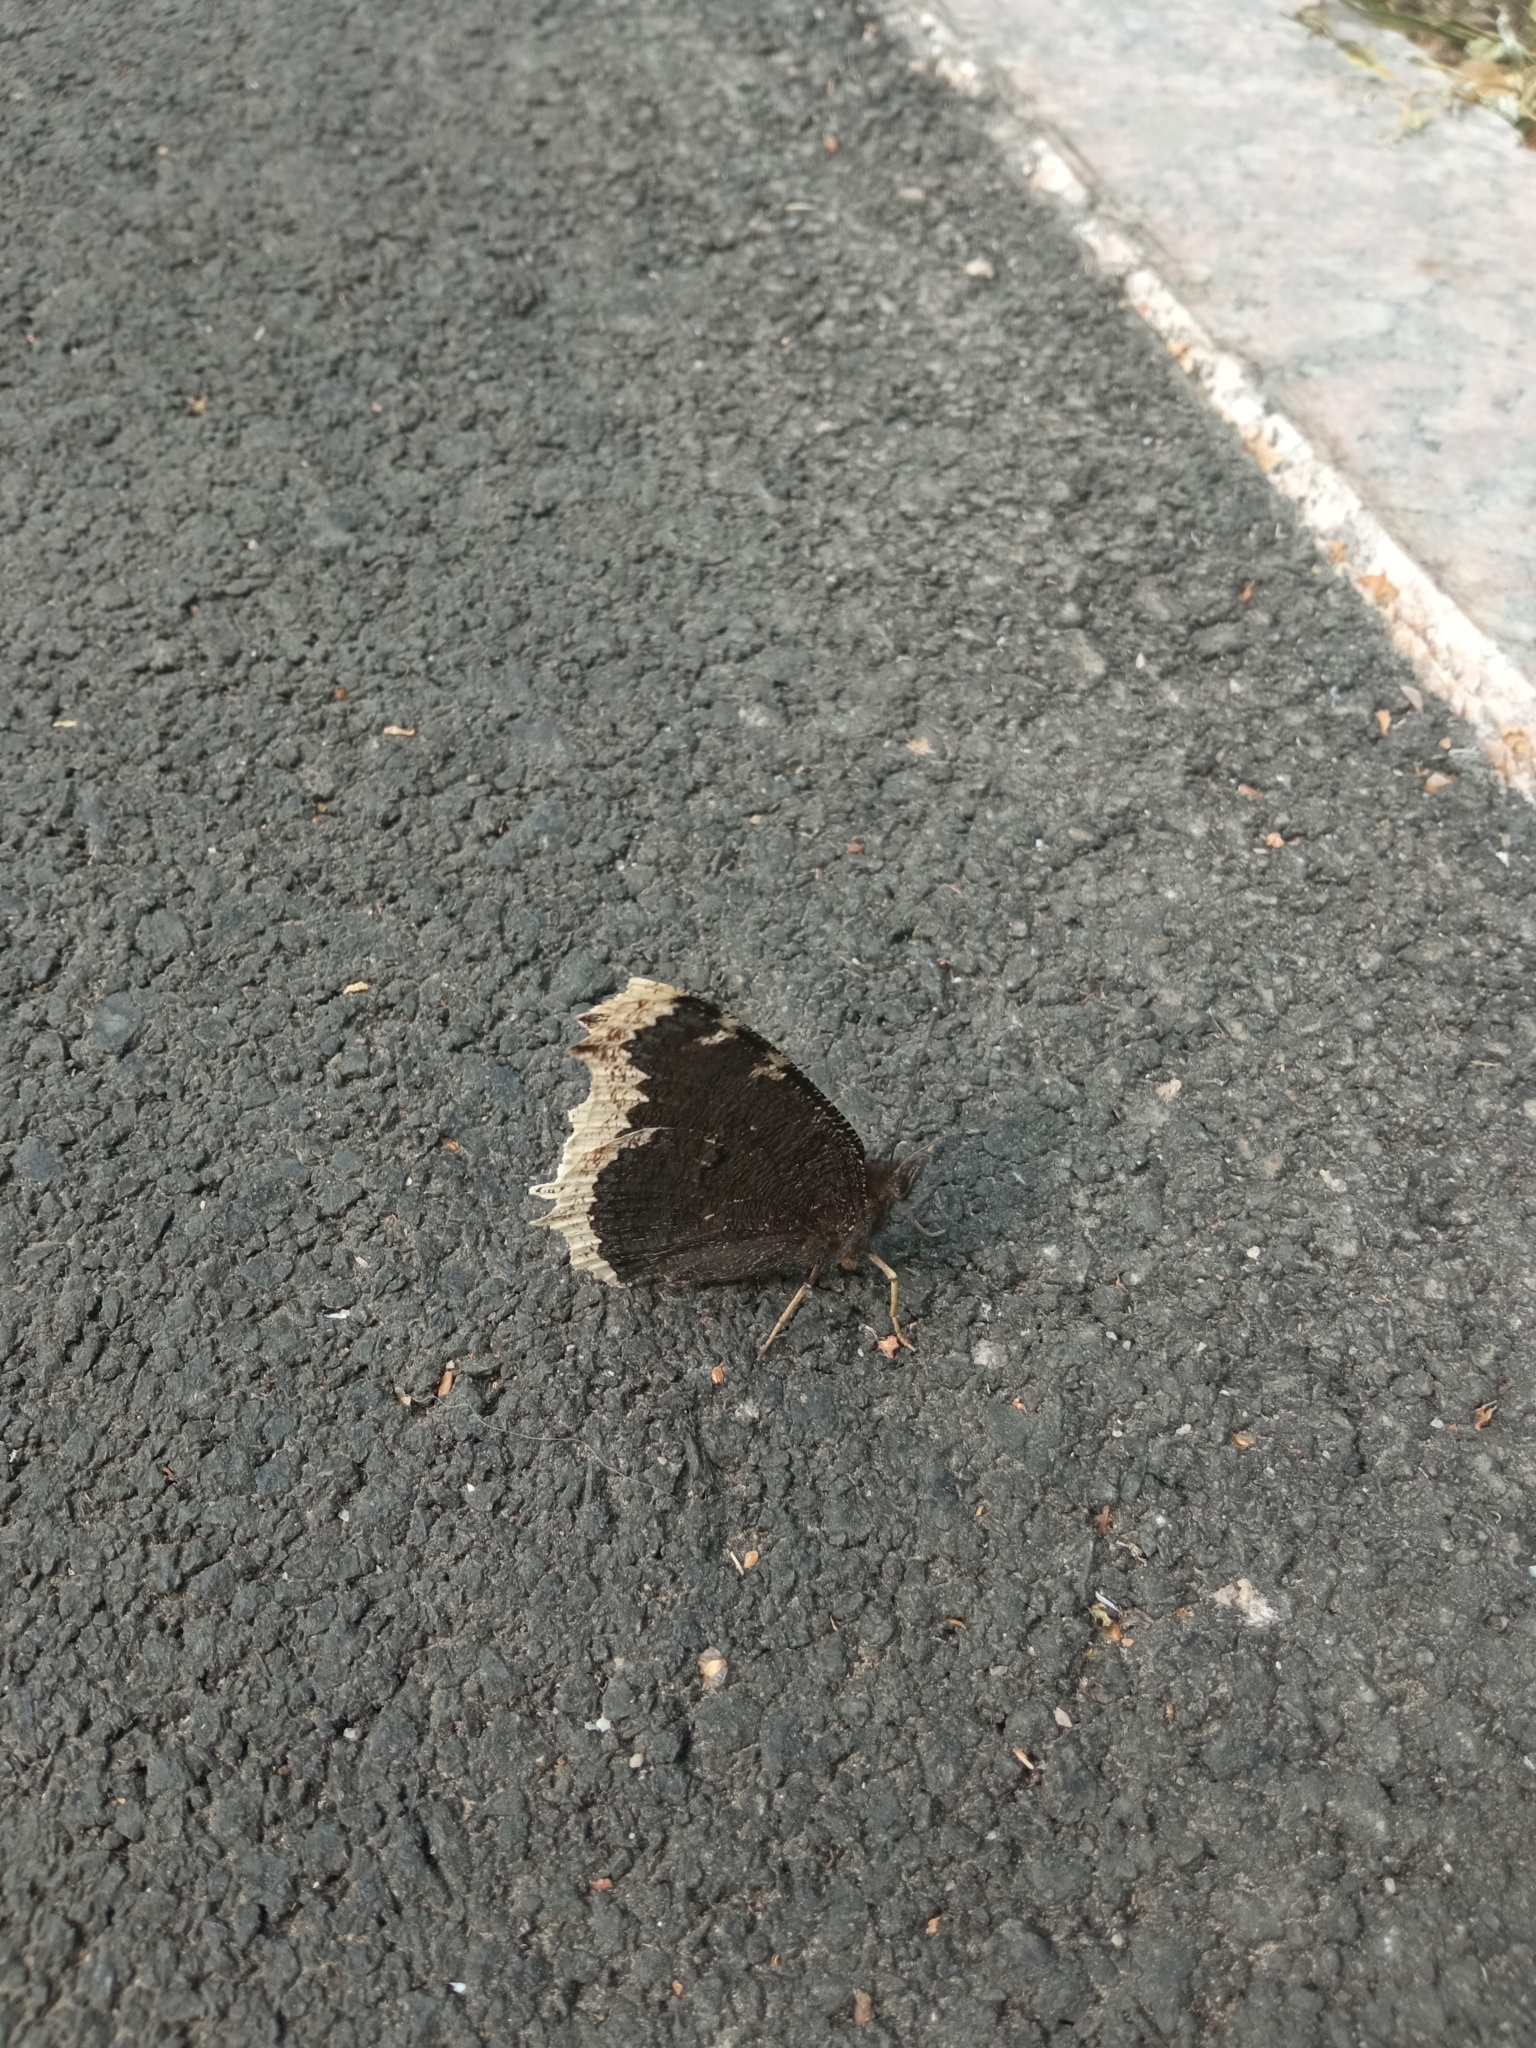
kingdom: Animalia
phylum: Arthropoda
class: Insecta
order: Lepidoptera
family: Nymphalidae
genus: Nymphalis
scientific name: Nymphalis antiopa
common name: Camberwell beauty
